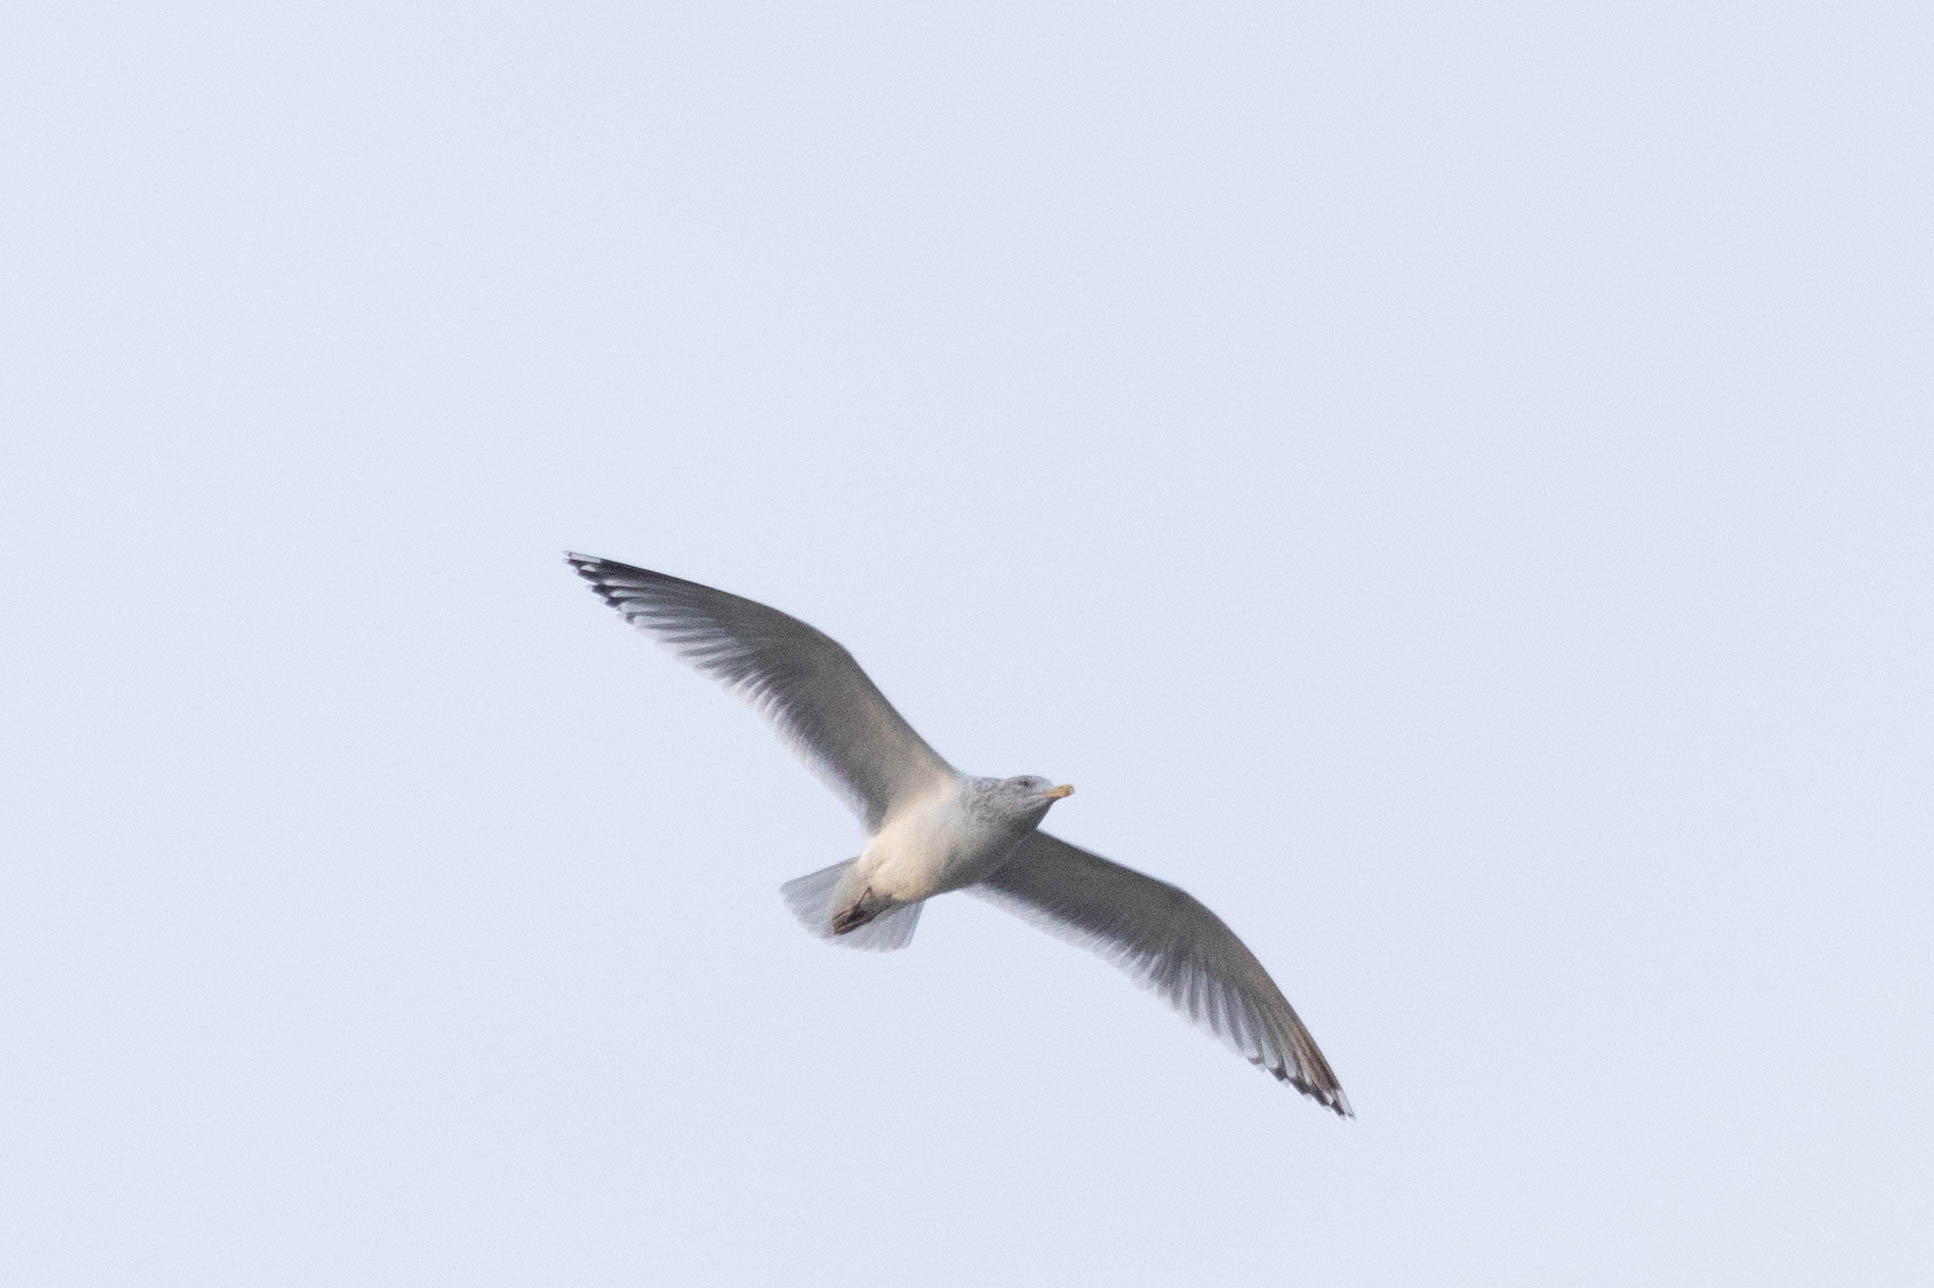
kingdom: Animalia
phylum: Chordata
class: Aves
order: Charadriiformes
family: Laridae
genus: Larus
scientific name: Larus argentatus
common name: Herring gull
